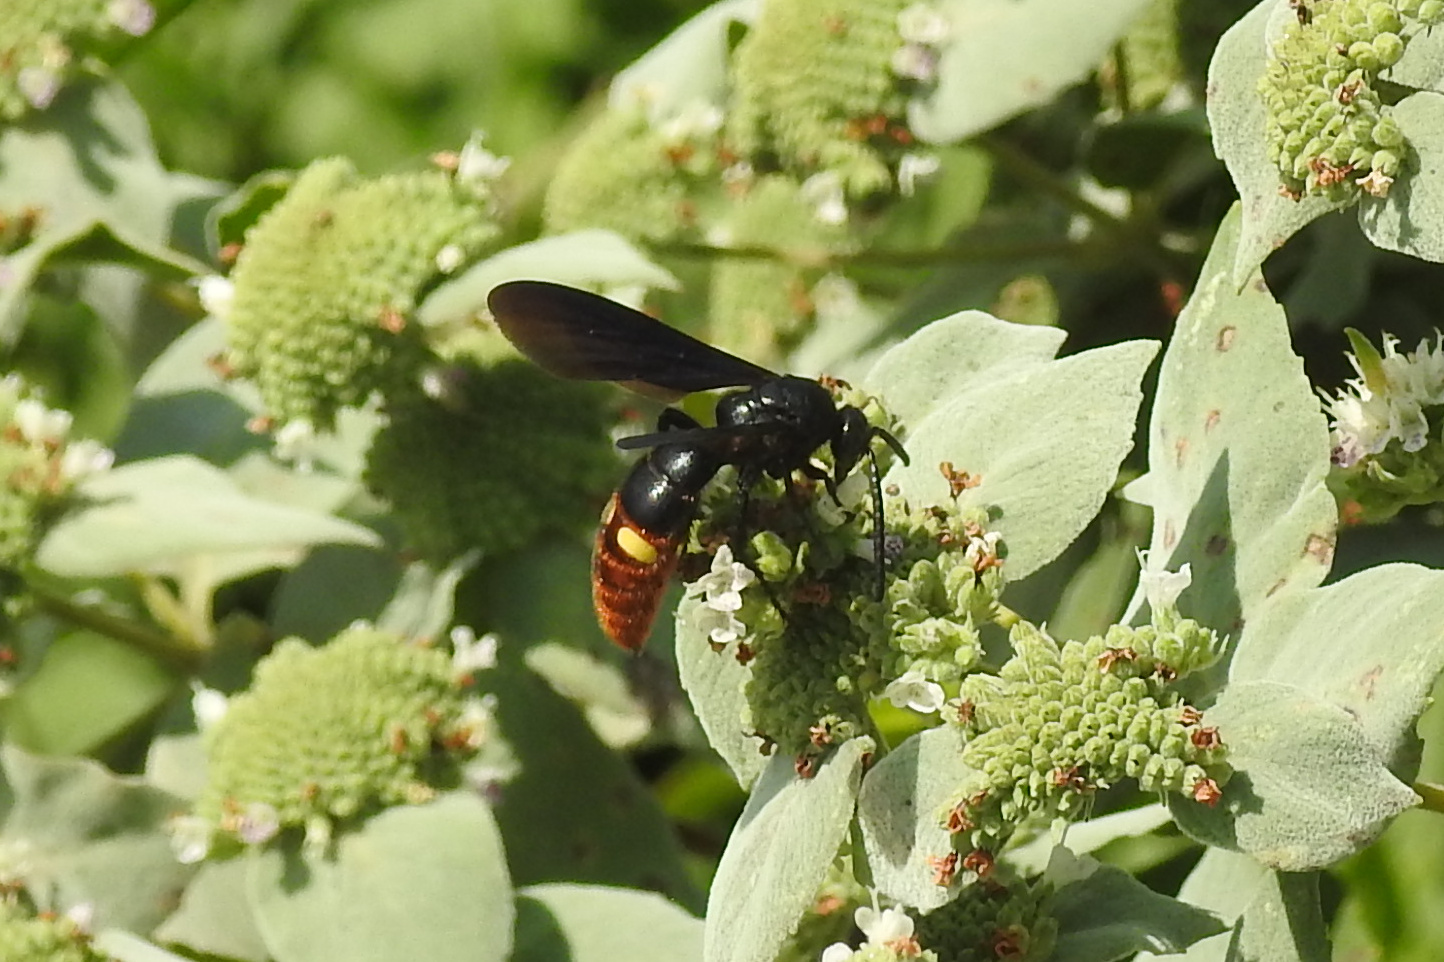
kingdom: Animalia
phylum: Arthropoda
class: Insecta
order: Hymenoptera
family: Scoliidae
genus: Scolia
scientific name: Scolia dubia
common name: Blue-winged scoliid wasp
